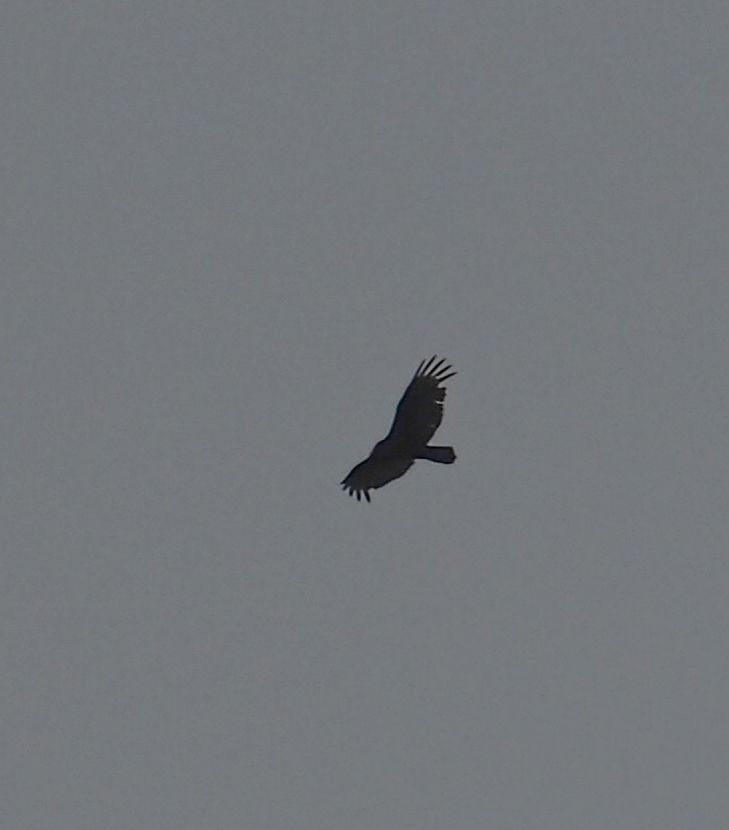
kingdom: Animalia
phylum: Chordata
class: Aves
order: Accipitriformes
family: Cathartidae
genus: Cathartes
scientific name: Cathartes aura
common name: Turkey vulture
